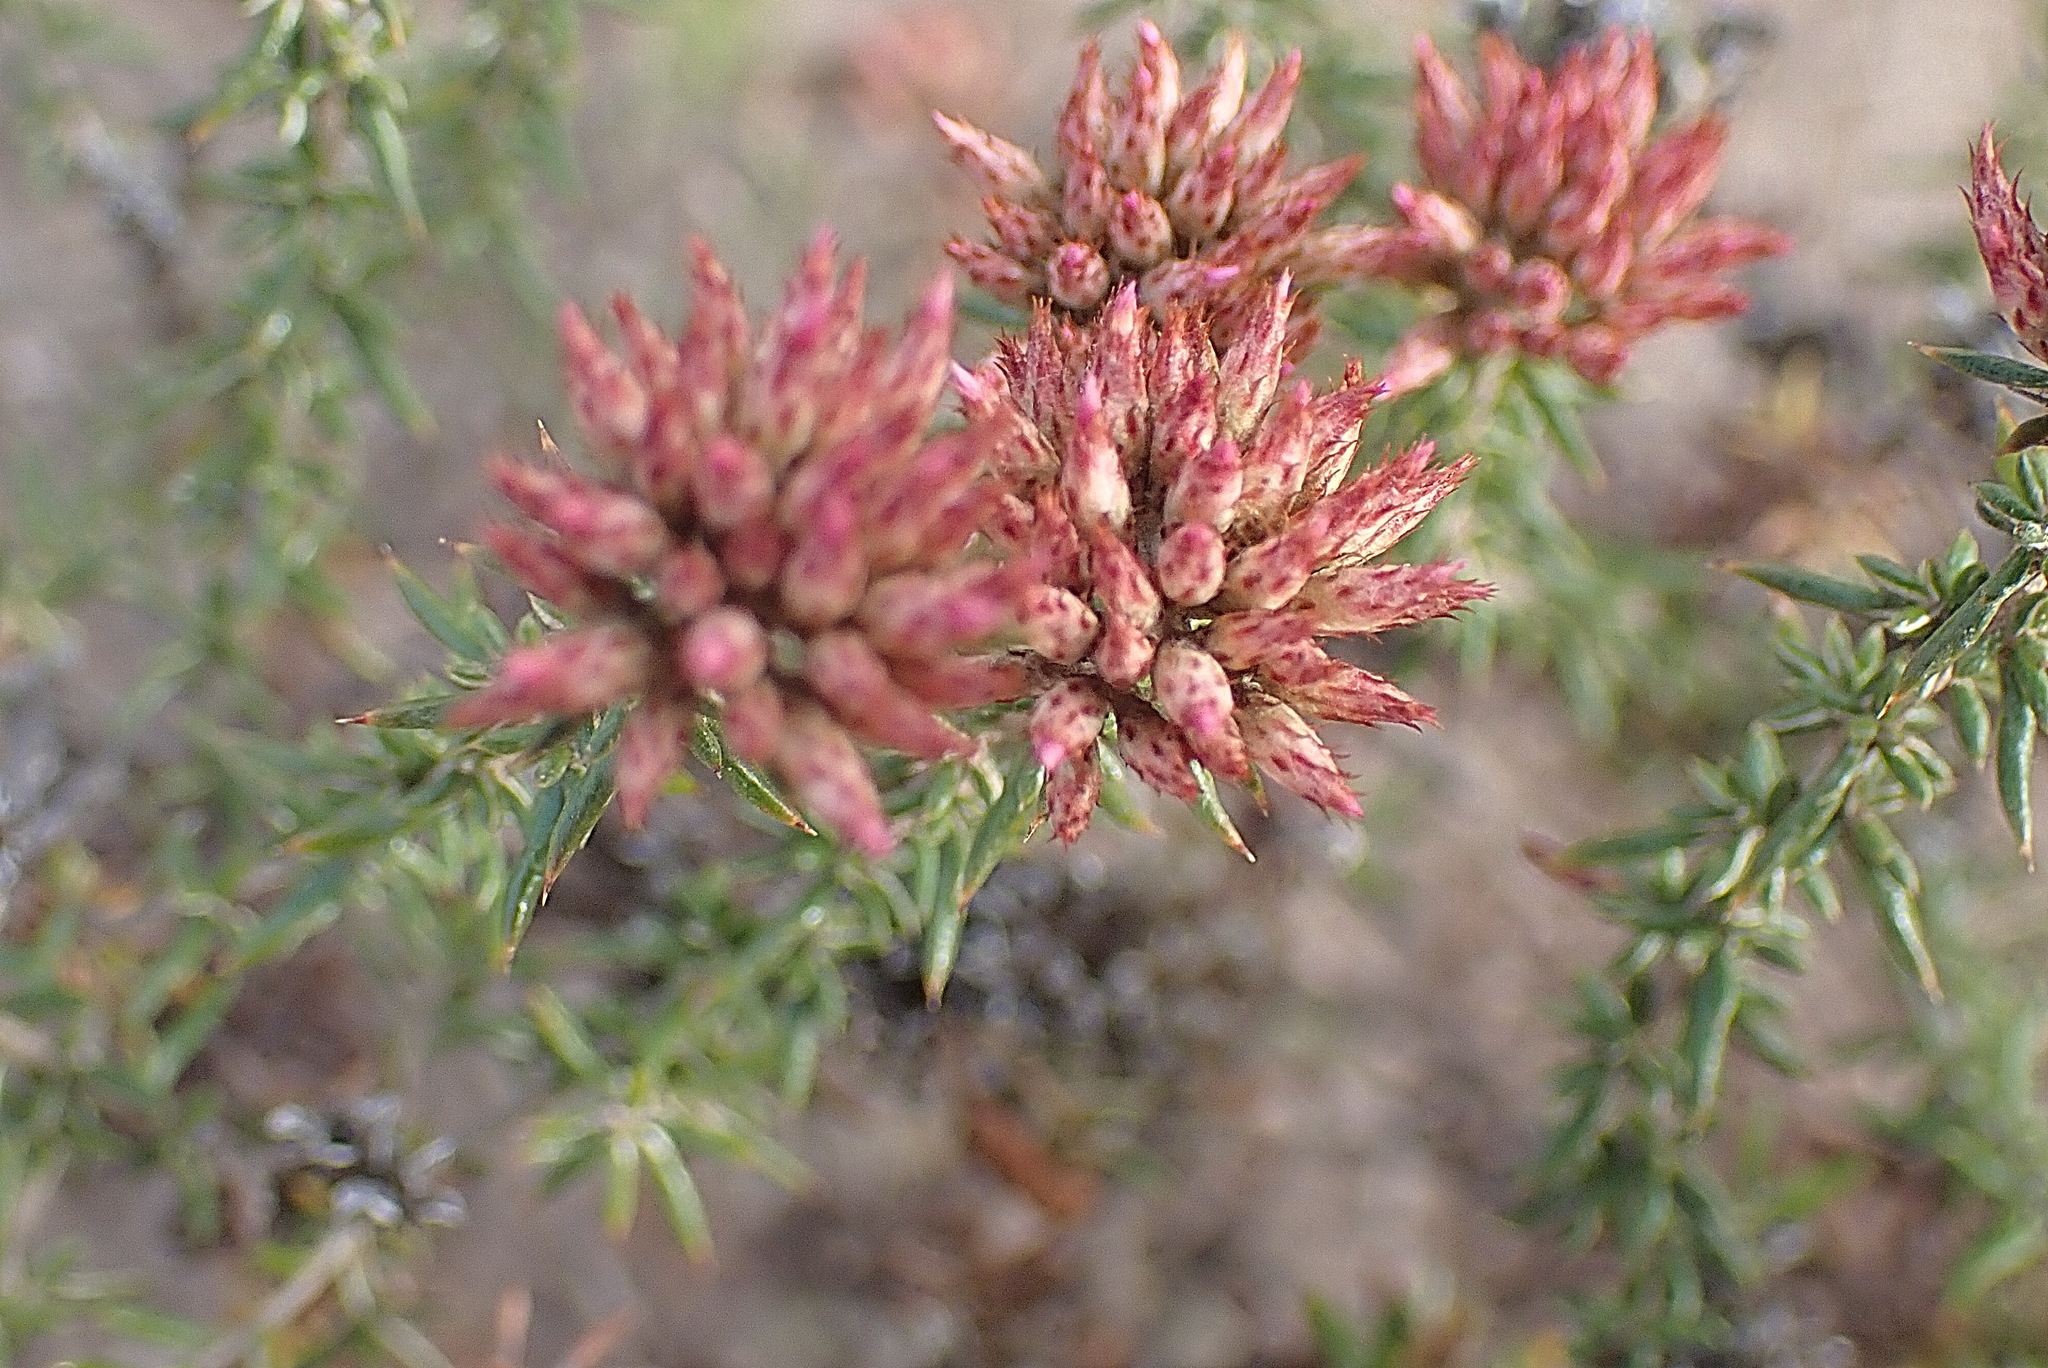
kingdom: Plantae
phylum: Tracheophyta
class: Magnoliopsida
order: Asterales
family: Asteraceae
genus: Metalasia
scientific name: Metalasia massonii
